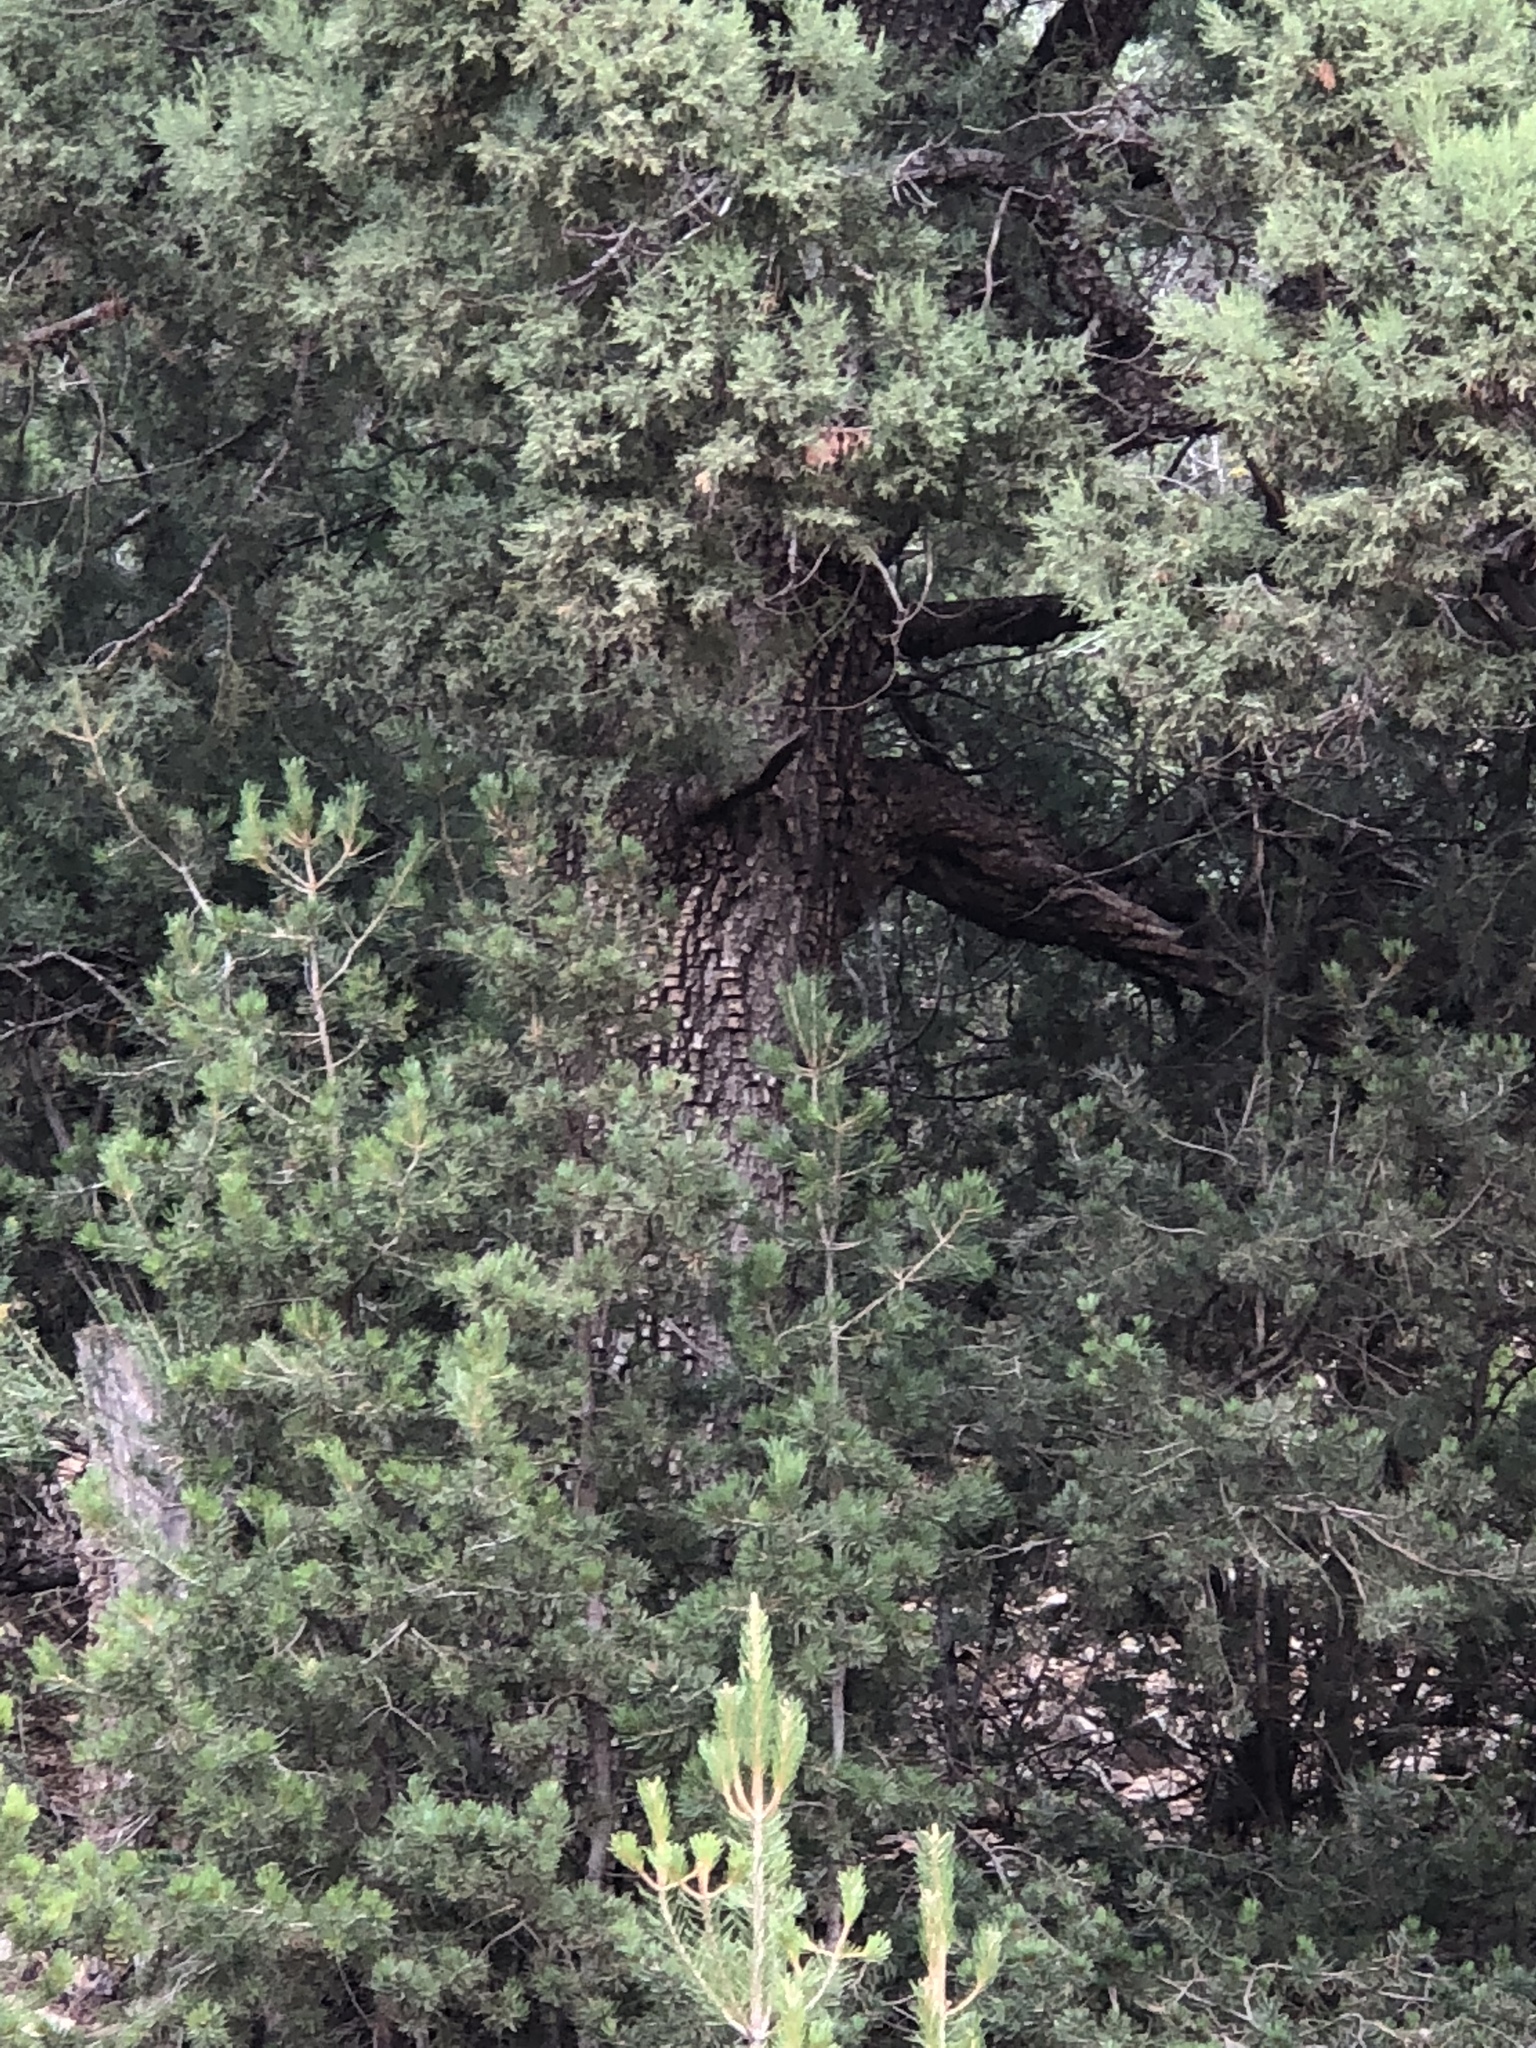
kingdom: Plantae
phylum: Tracheophyta
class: Pinopsida
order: Pinales
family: Cupressaceae
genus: Juniperus
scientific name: Juniperus deppeana
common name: Alligator juniper
